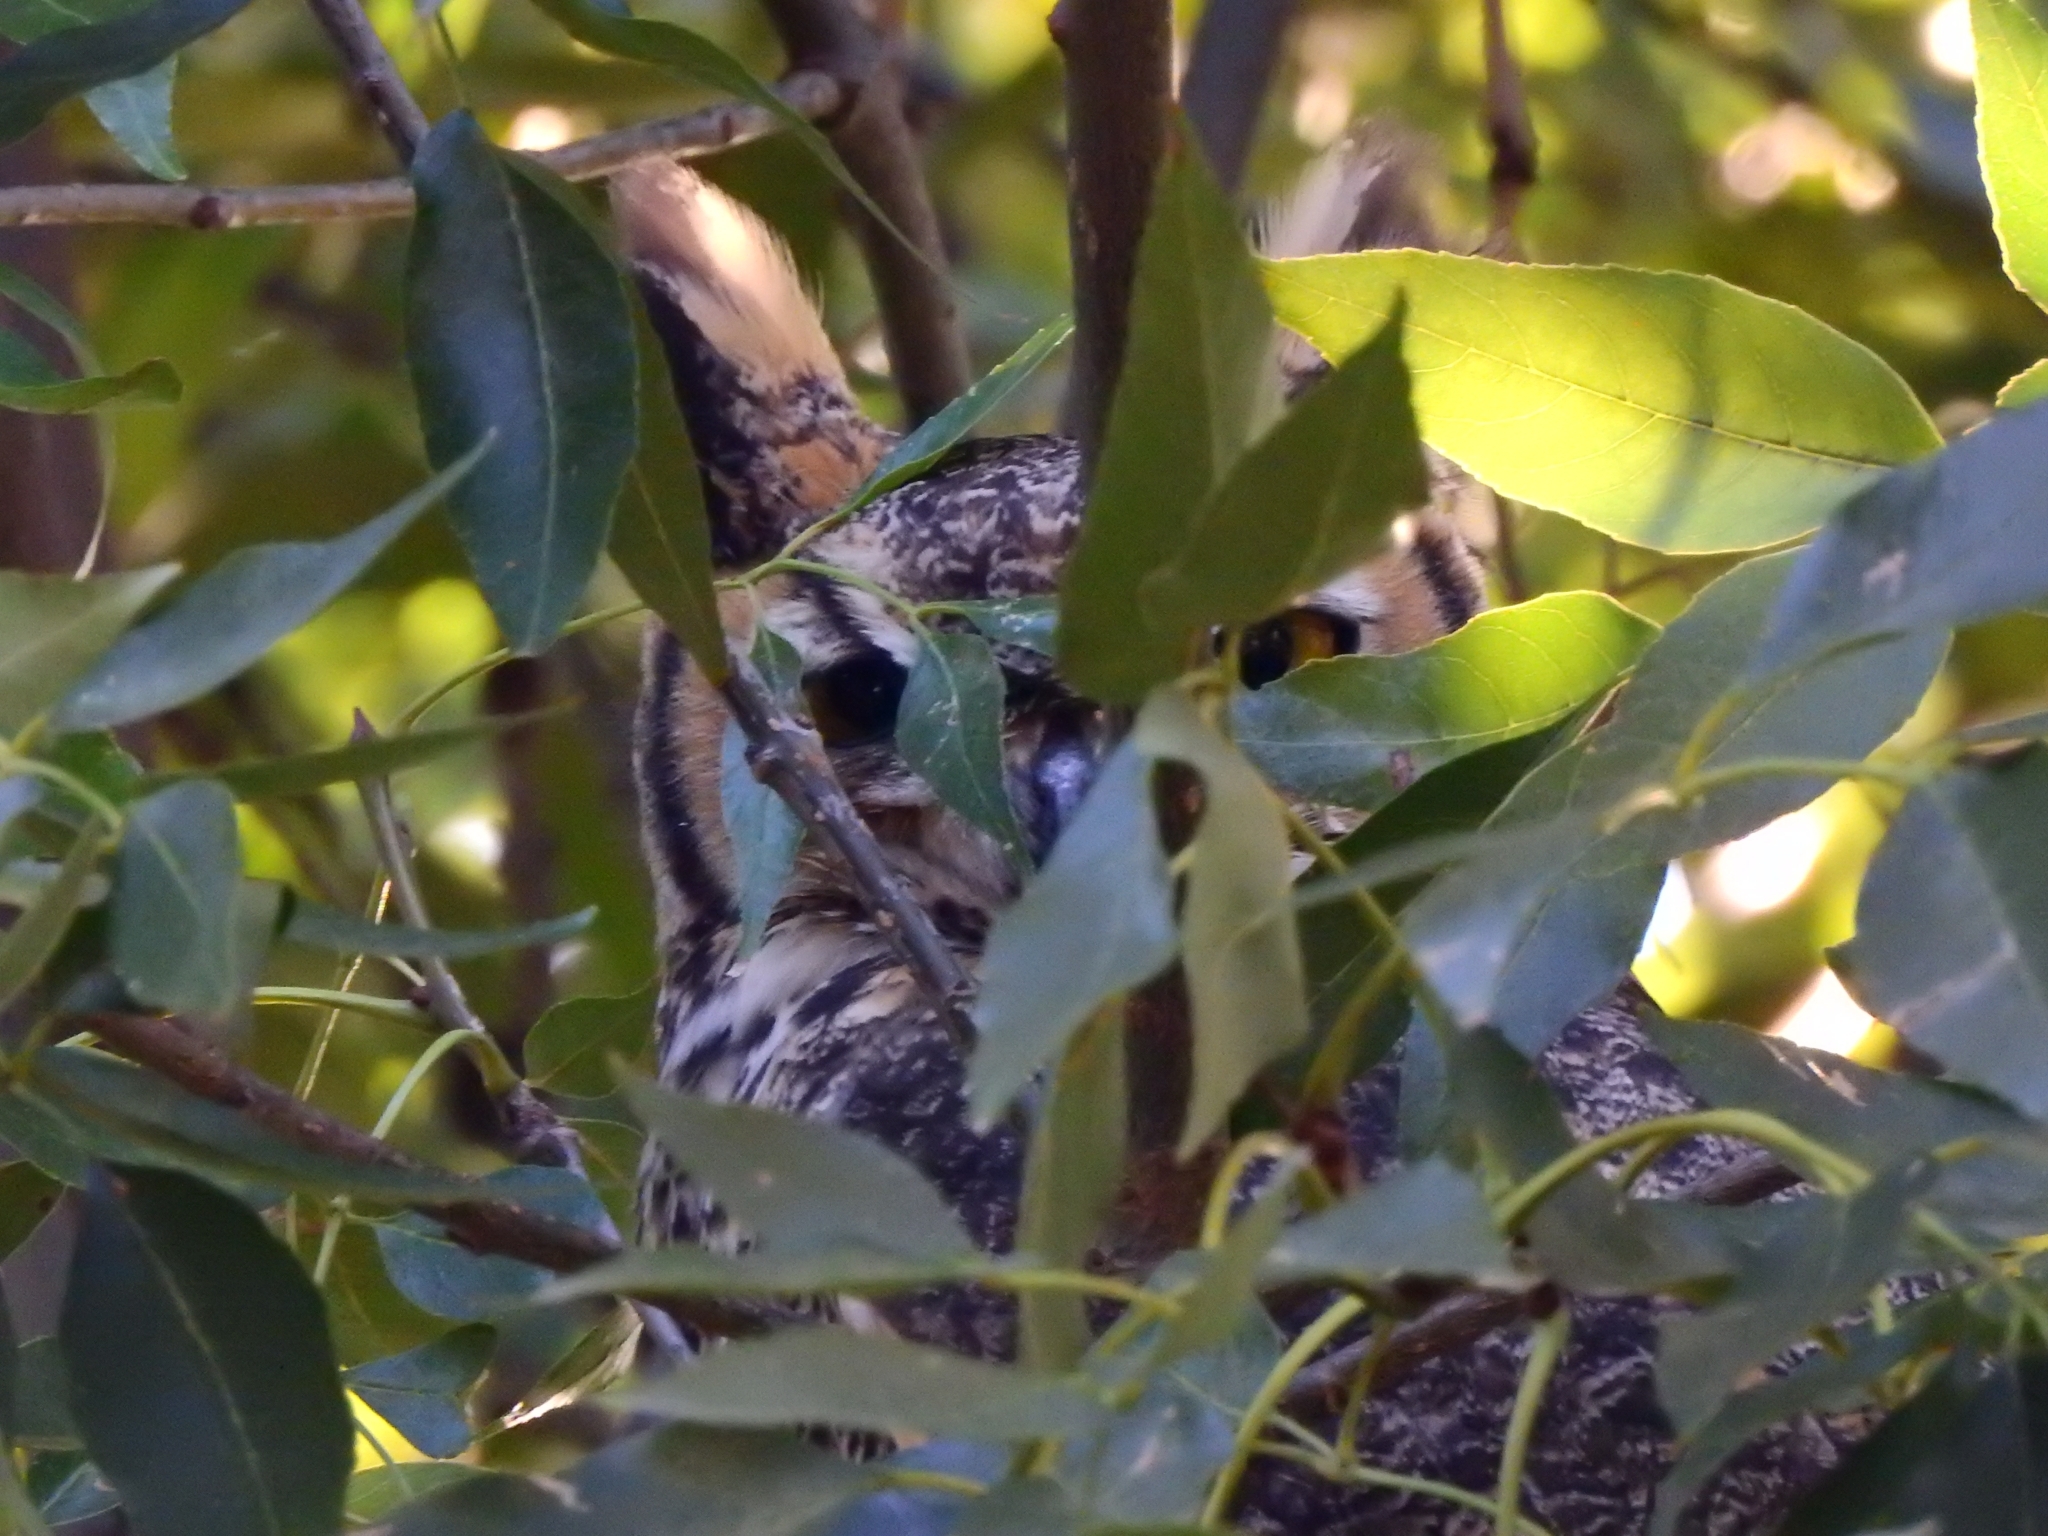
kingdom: Animalia
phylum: Chordata
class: Aves
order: Strigiformes
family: Strigidae
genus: Bubo
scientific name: Bubo virginianus
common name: Great horned owl
